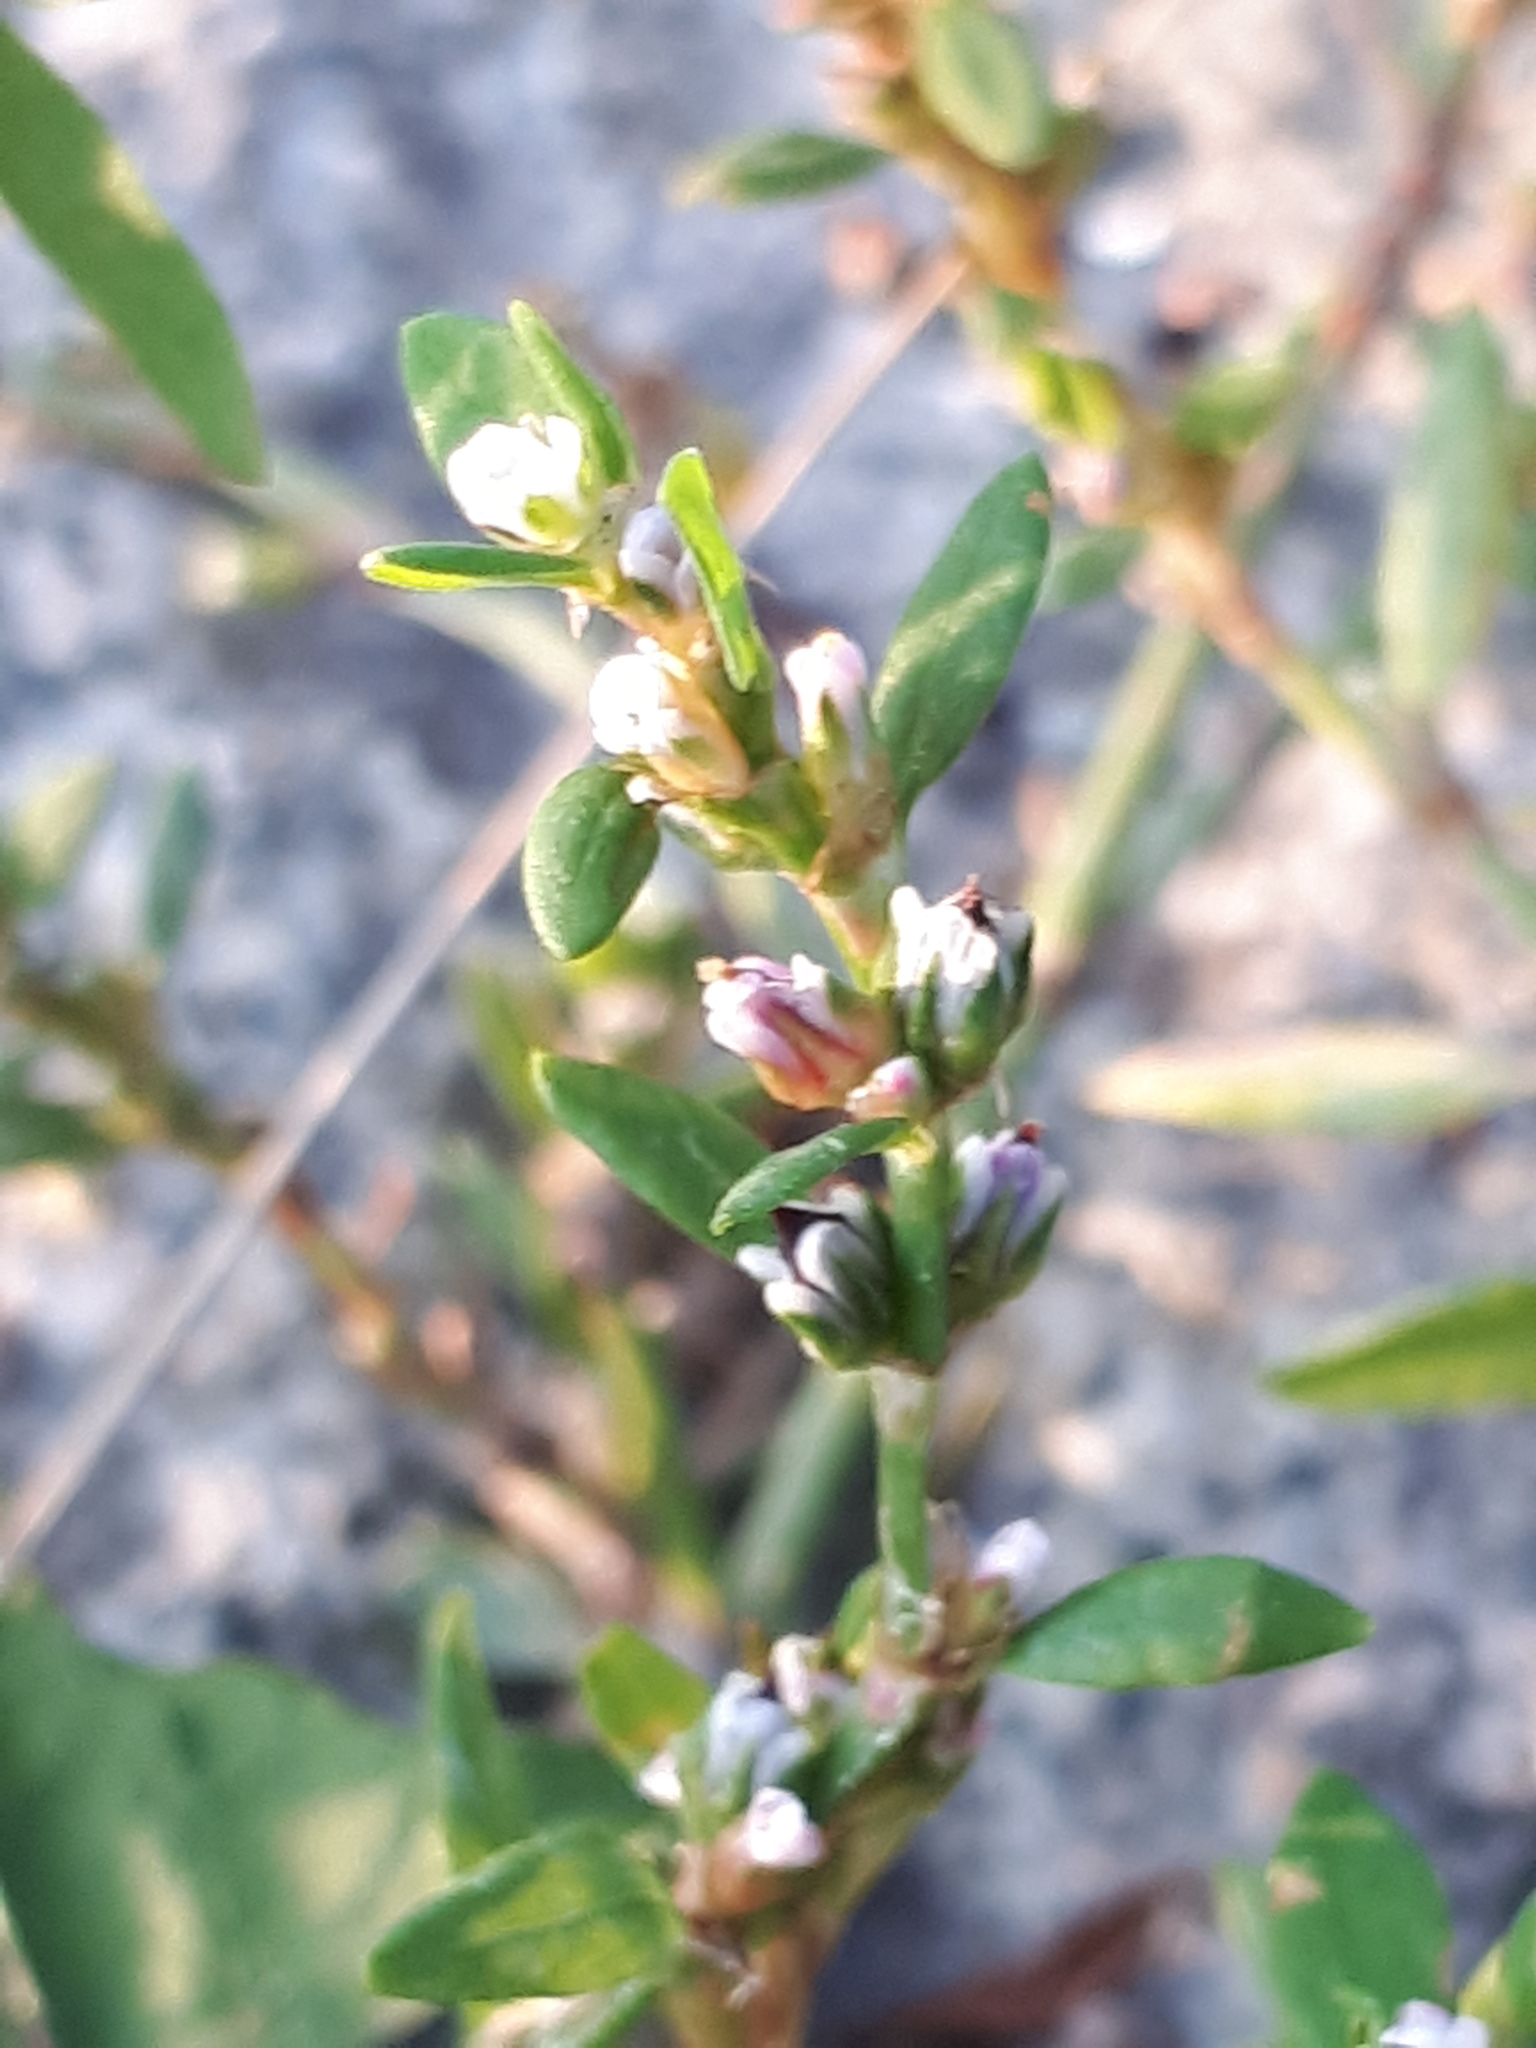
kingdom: Plantae
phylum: Tracheophyta
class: Magnoliopsida
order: Caryophyllales
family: Polygonaceae
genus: Polygonum
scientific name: Polygonum aviculare
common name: Prostrate knotweed
